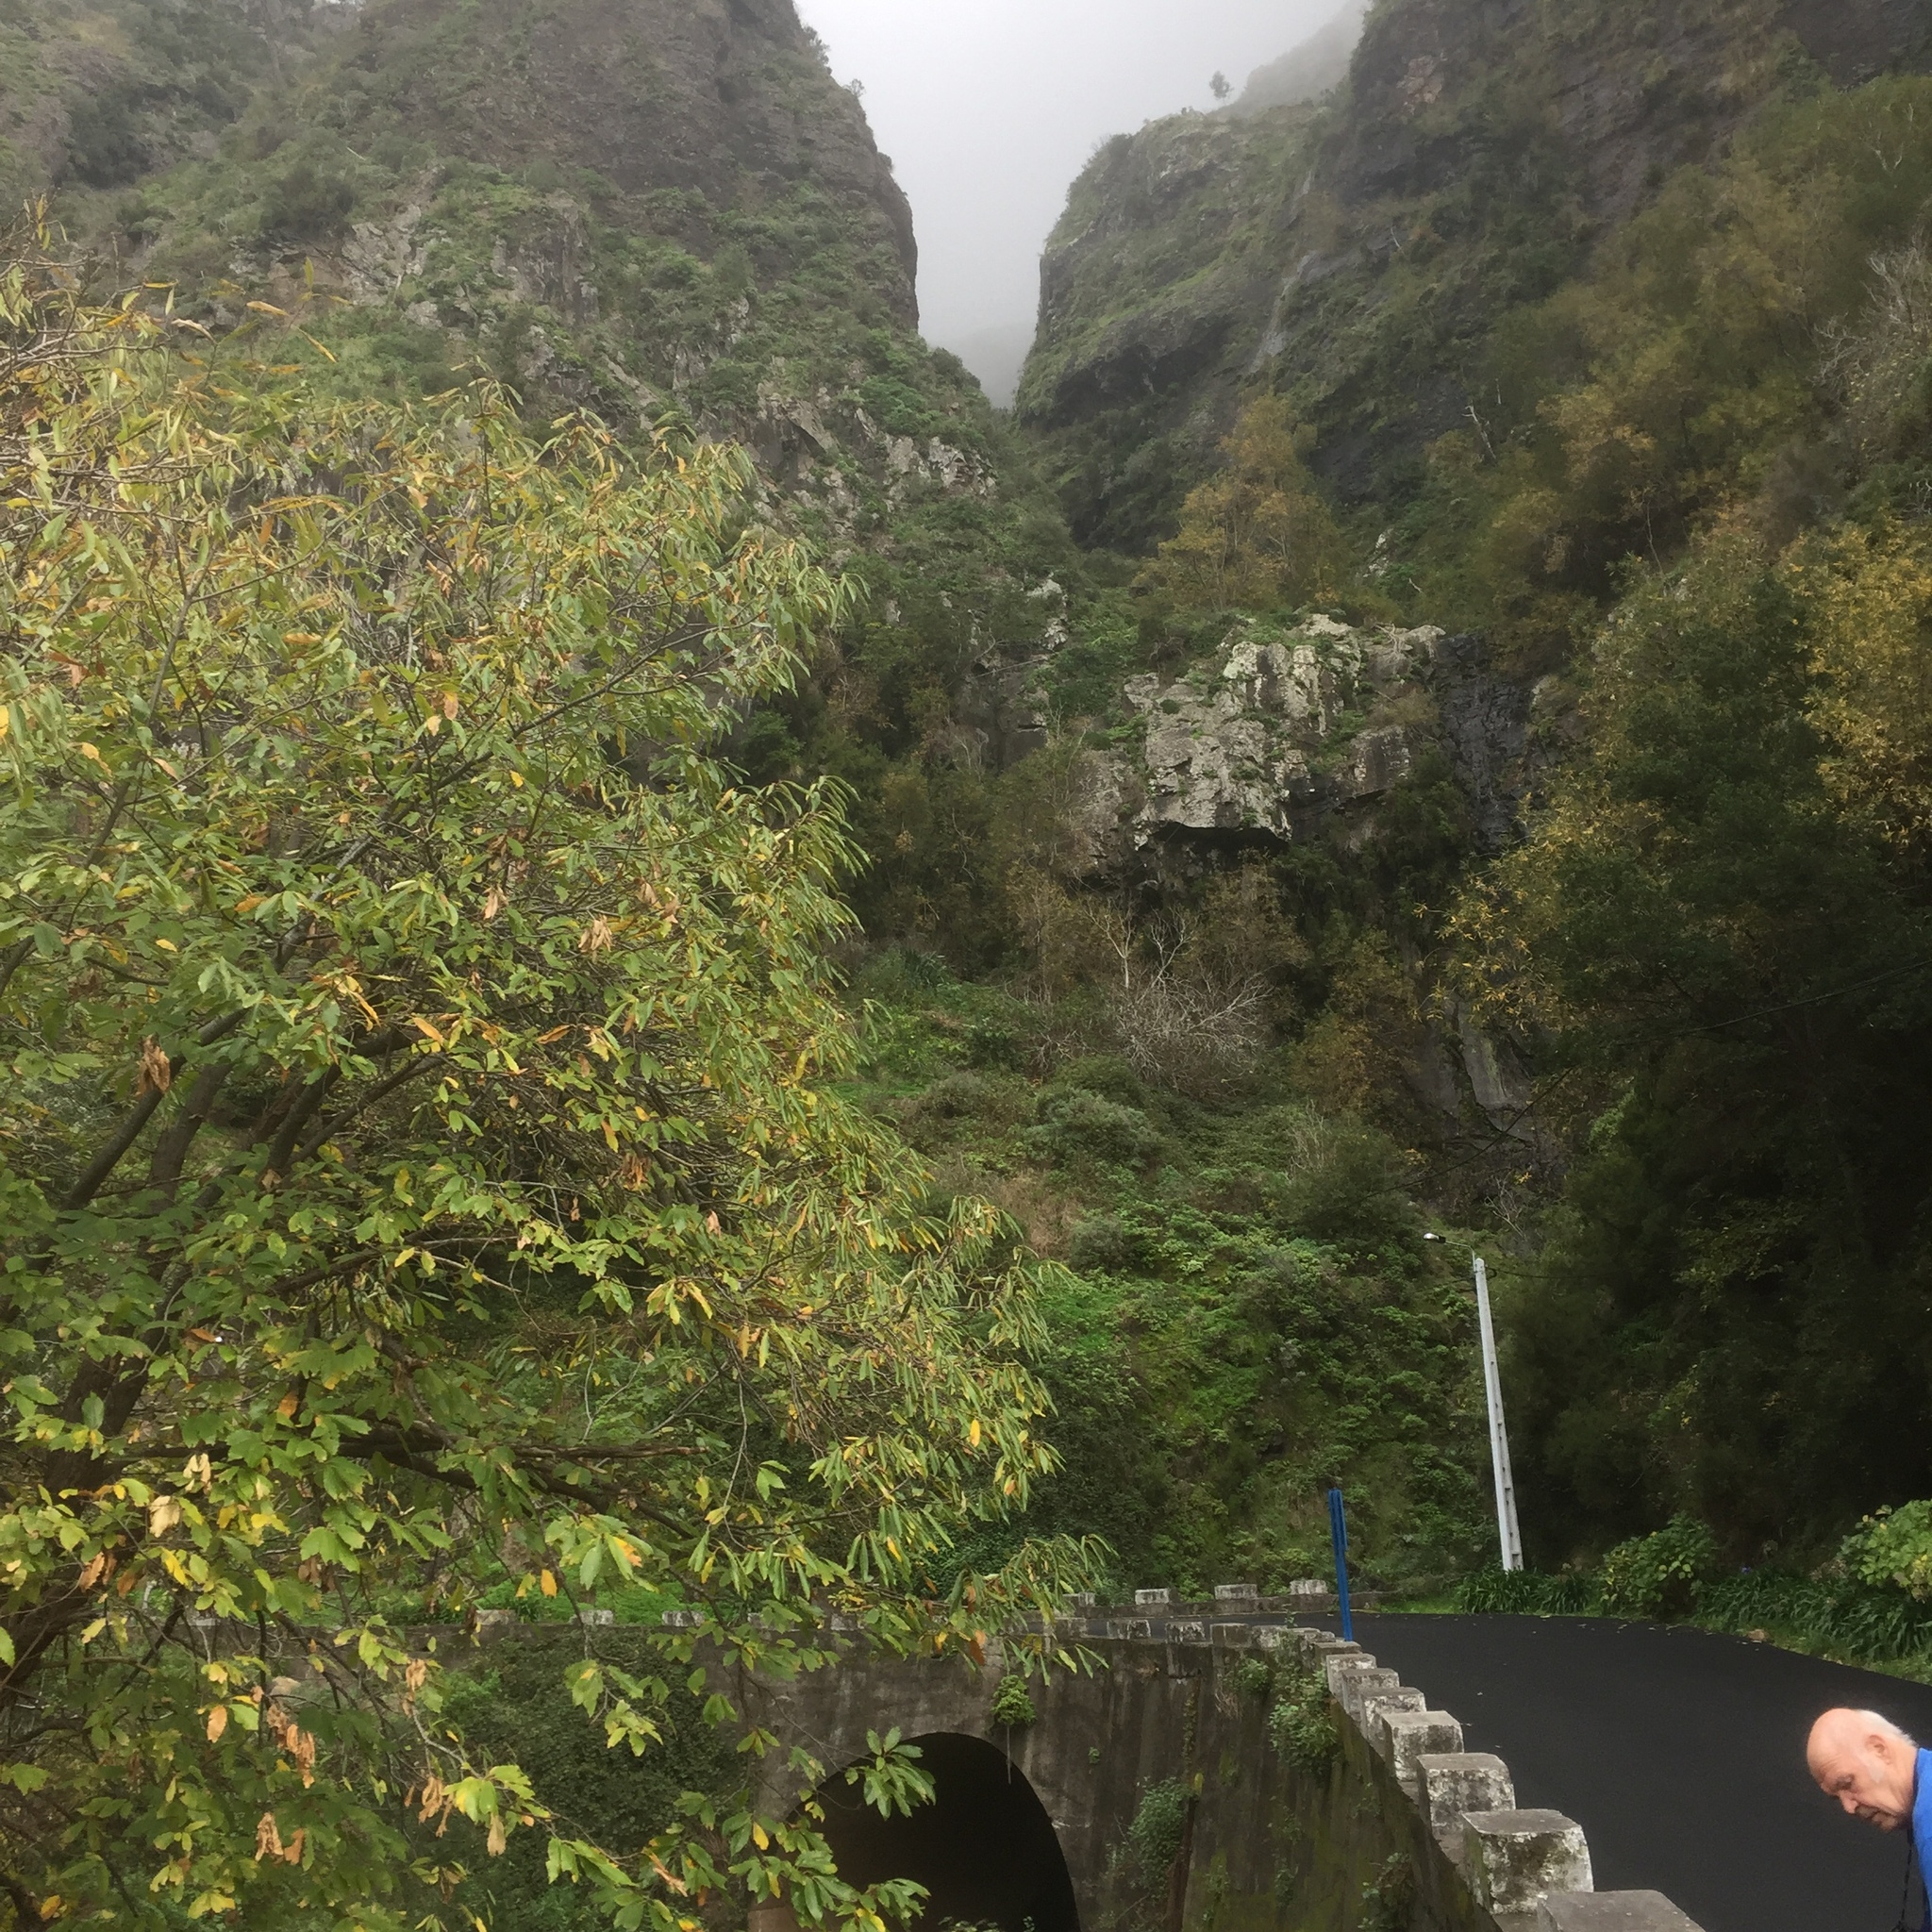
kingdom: Plantae
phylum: Tracheophyta
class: Magnoliopsida
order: Fagales
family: Fagaceae
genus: Castanea
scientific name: Castanea sativa
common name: Sweet chestnut
